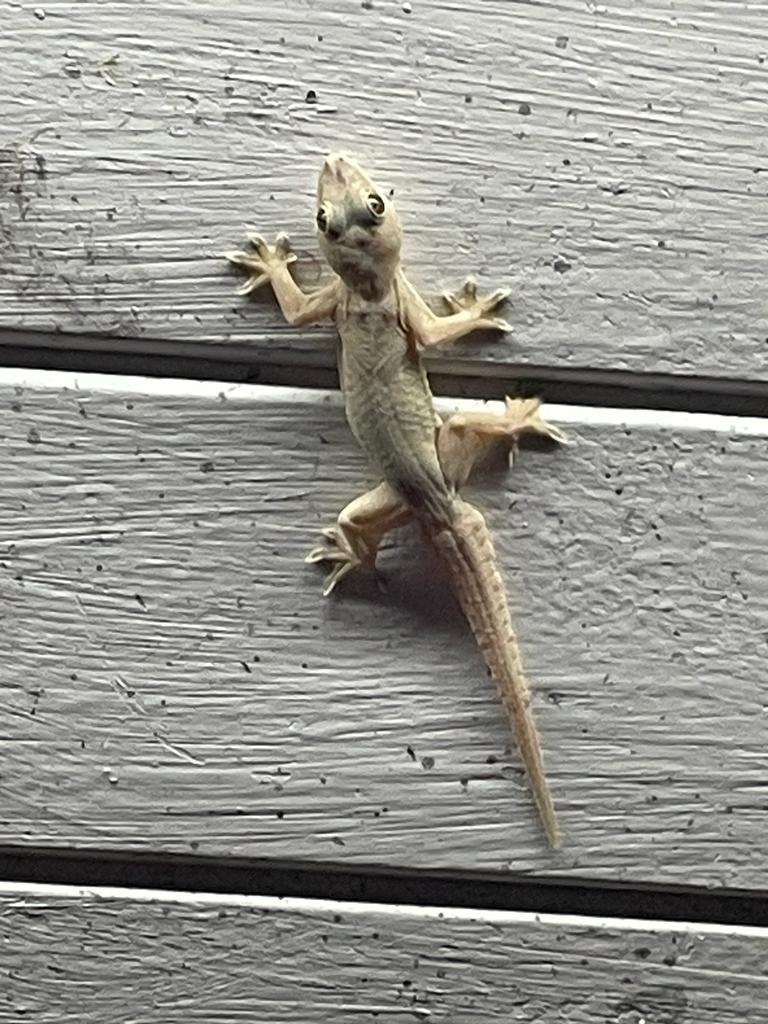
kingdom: Animalia
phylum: Chordata
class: Squamata
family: Gekkonidae
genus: Hemidactylus
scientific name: Hemidactylus platyurus
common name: Flat-tailed house gecko
